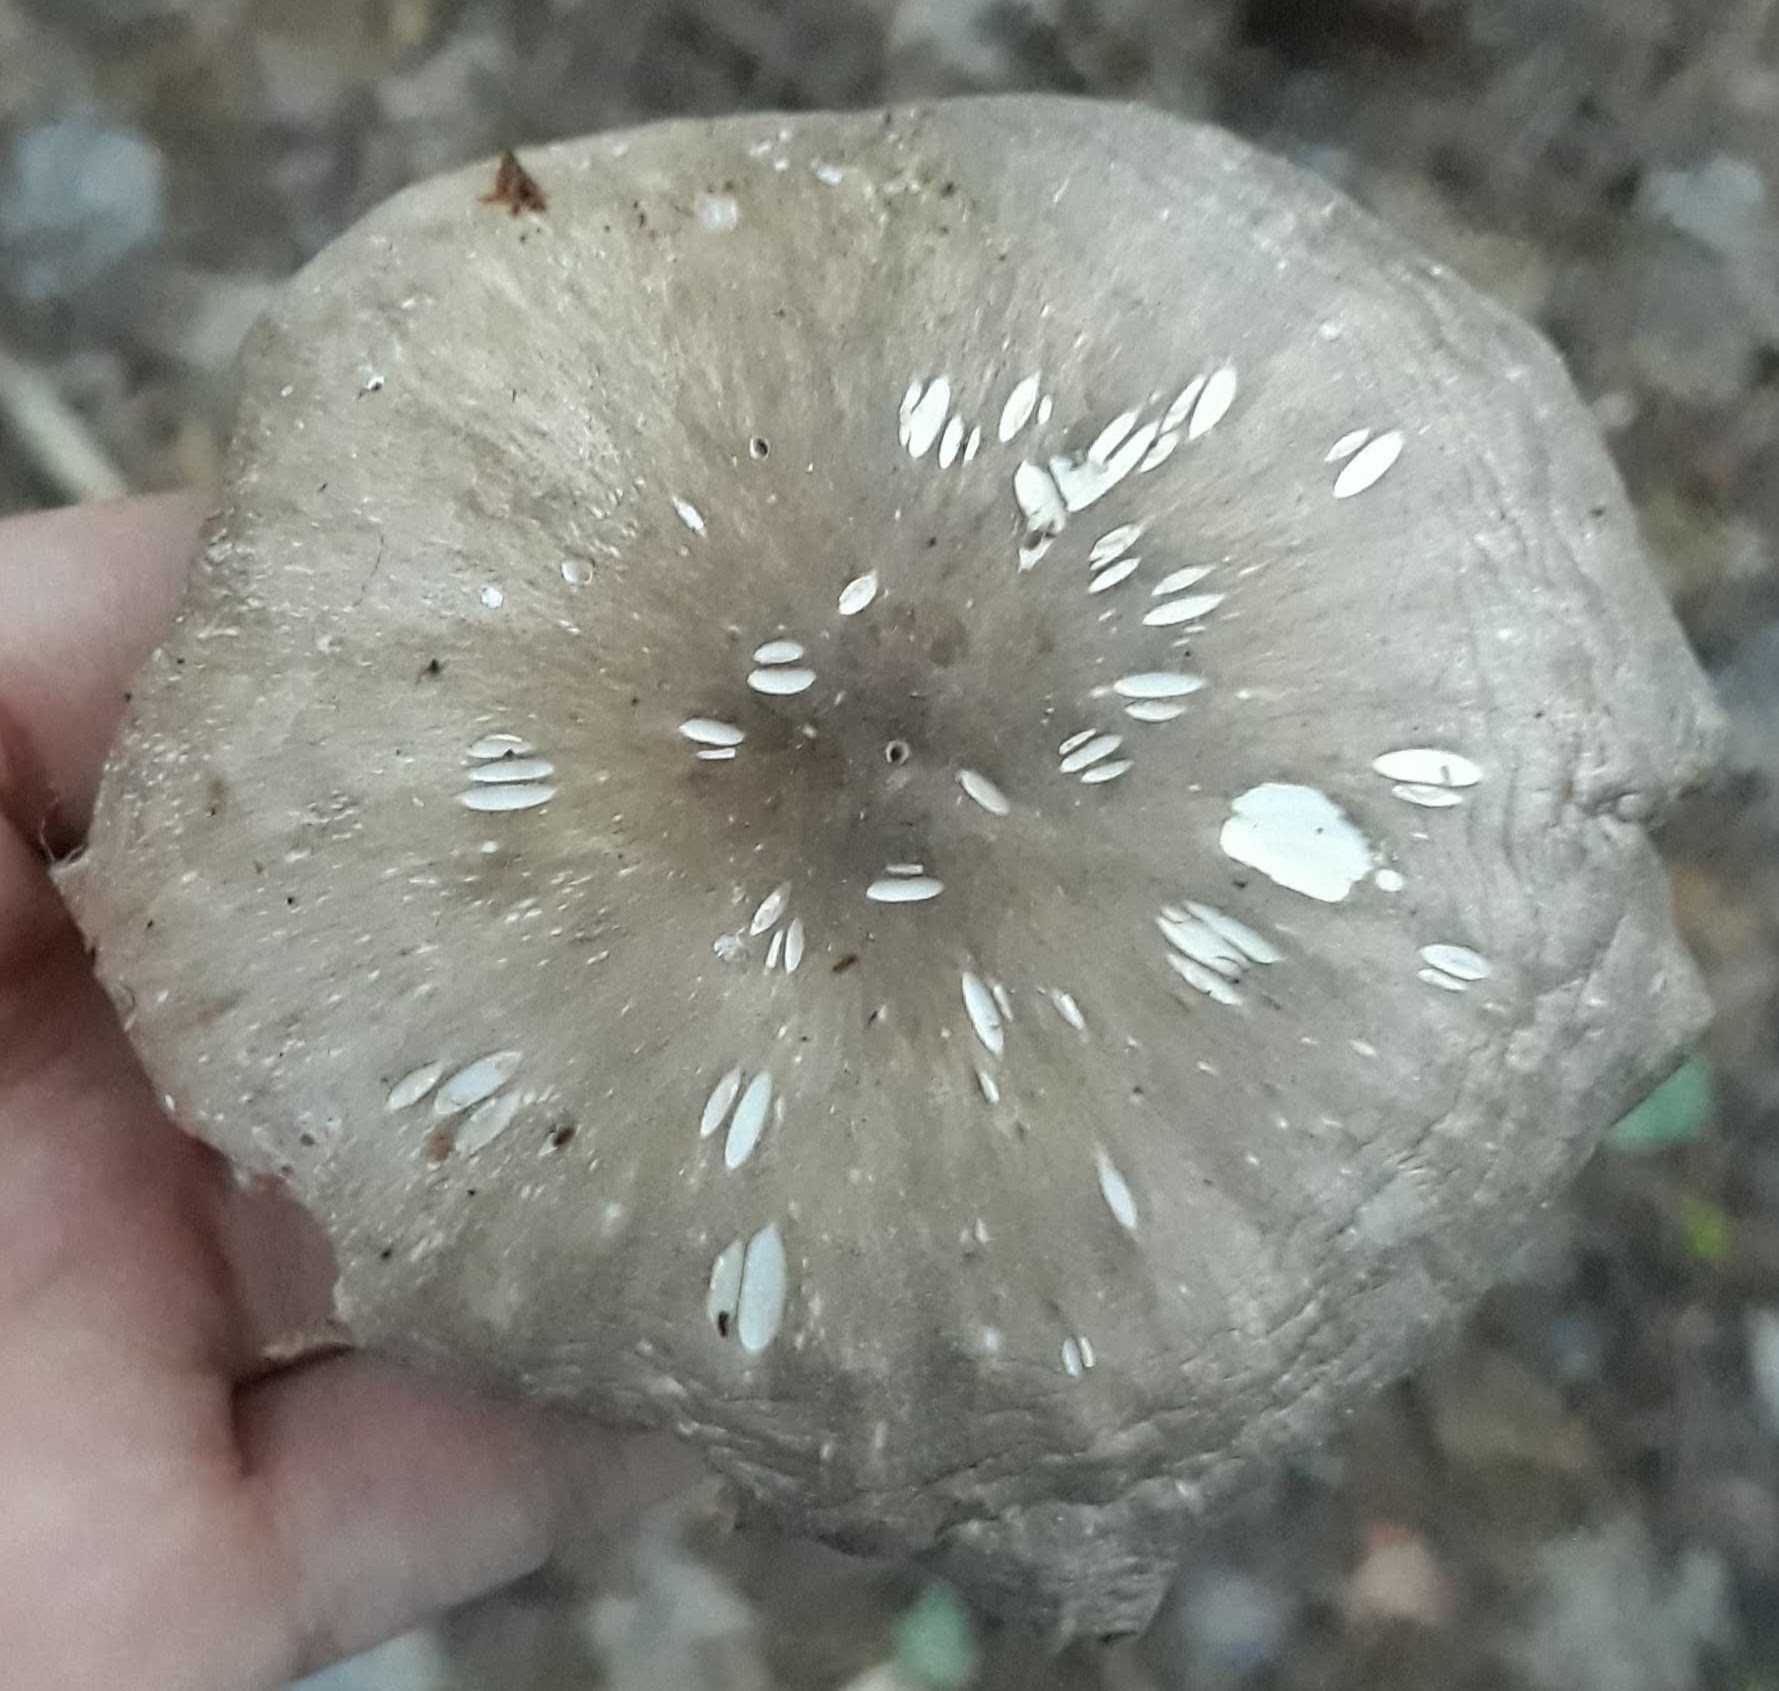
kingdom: Fungi
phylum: Basidiomycota
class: Agaricomycetes
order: Agaricales
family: Tricholomataceae
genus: Megacollybia
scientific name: Megacollybia rodmanii
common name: Eastern american platterful mushroom
